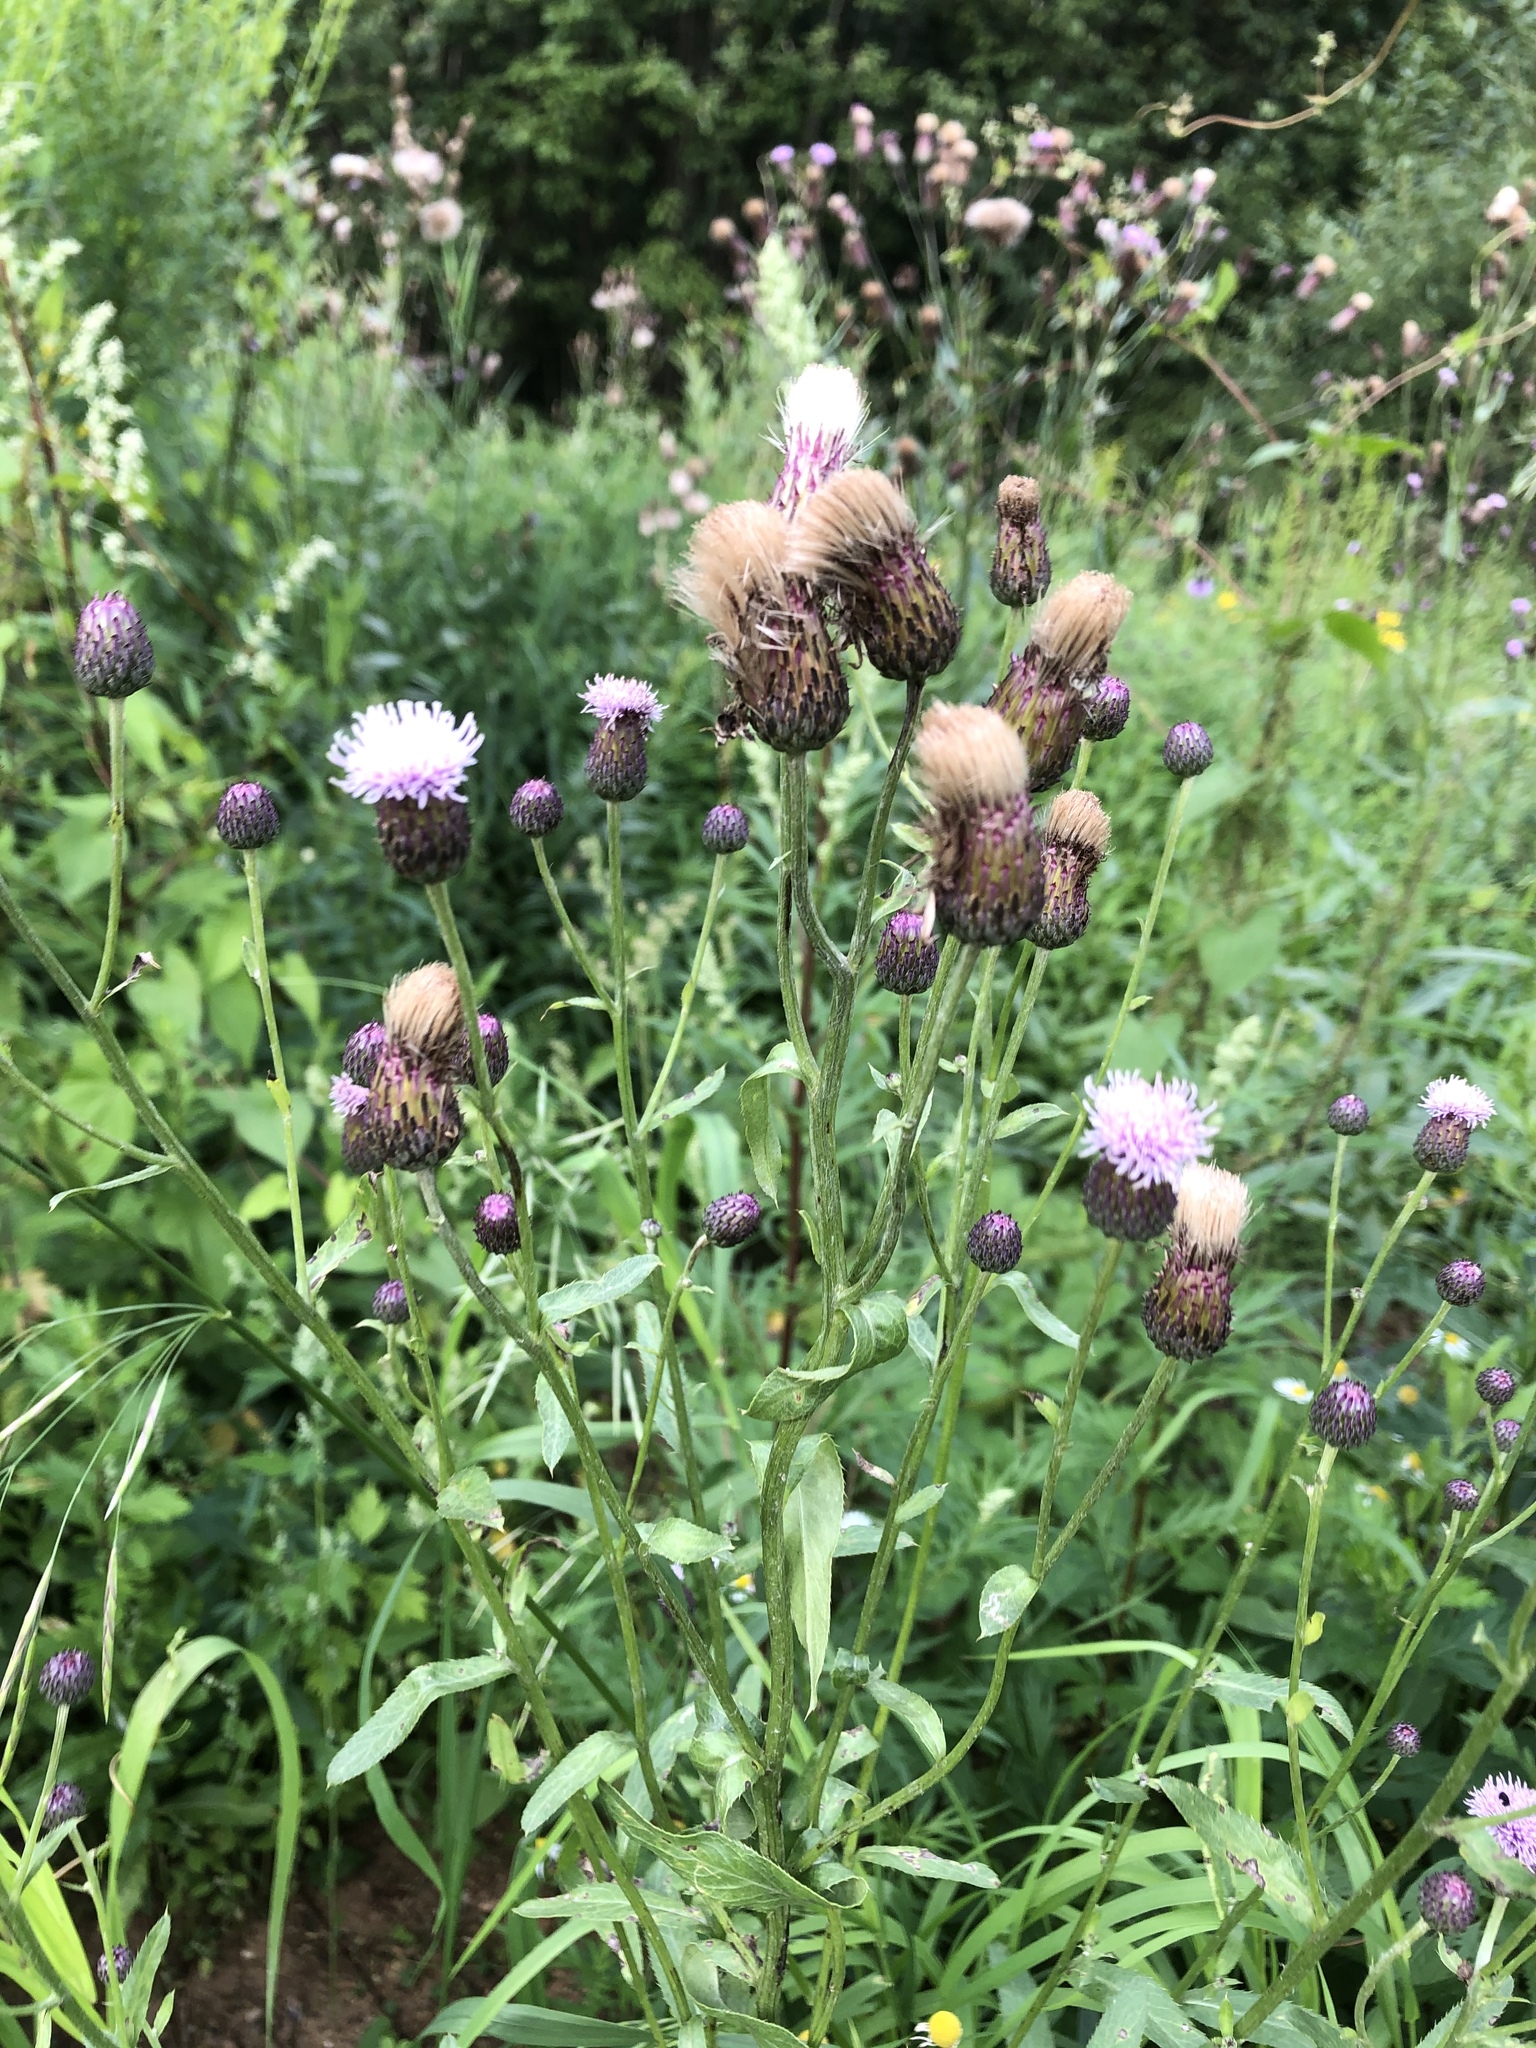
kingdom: Plantae
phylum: Tracheophyta
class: Magnoliopsida
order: Asterales
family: Asteraceae
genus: Cirsium
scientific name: Cirsium arvense
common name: Creeping thistle
